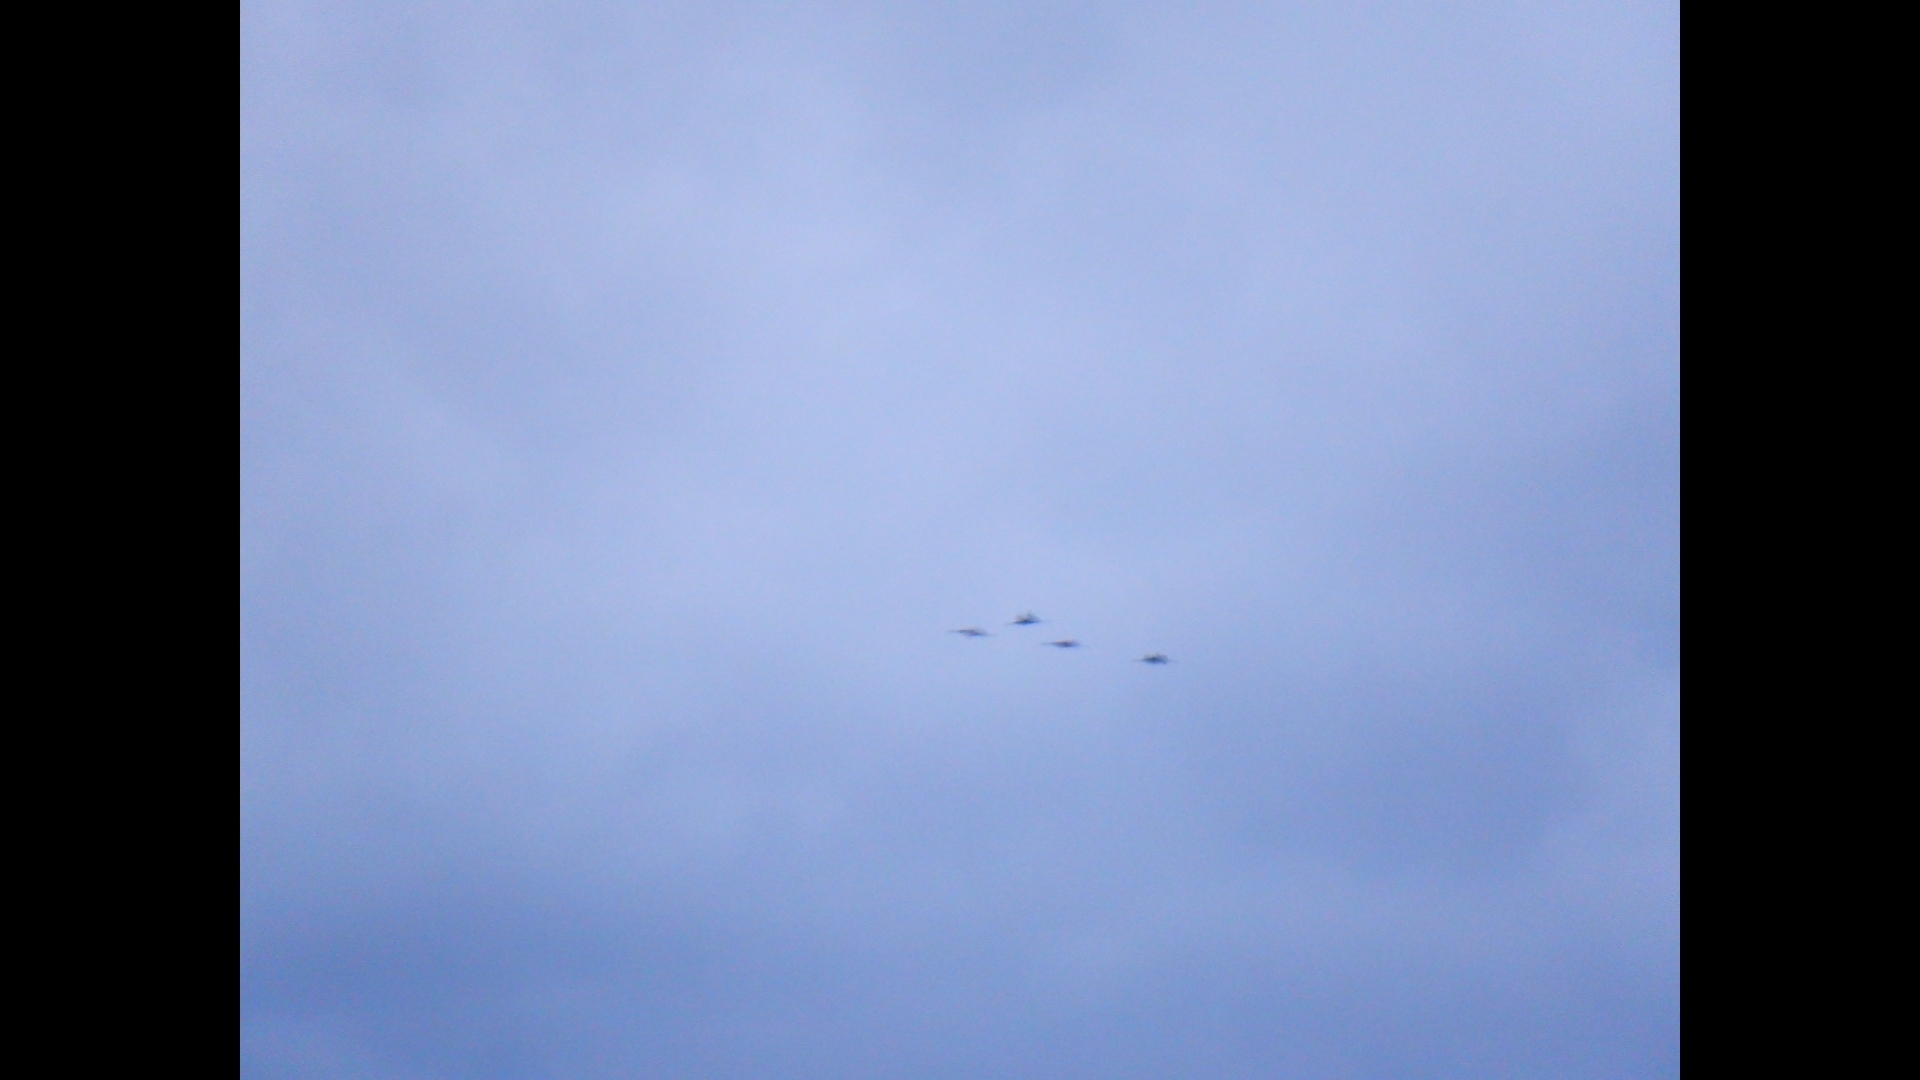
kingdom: Animalia
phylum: Chordata
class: Aves
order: Gruiformes
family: Gruidae
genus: Grus
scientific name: Grus canadensis
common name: Sandhill crane
